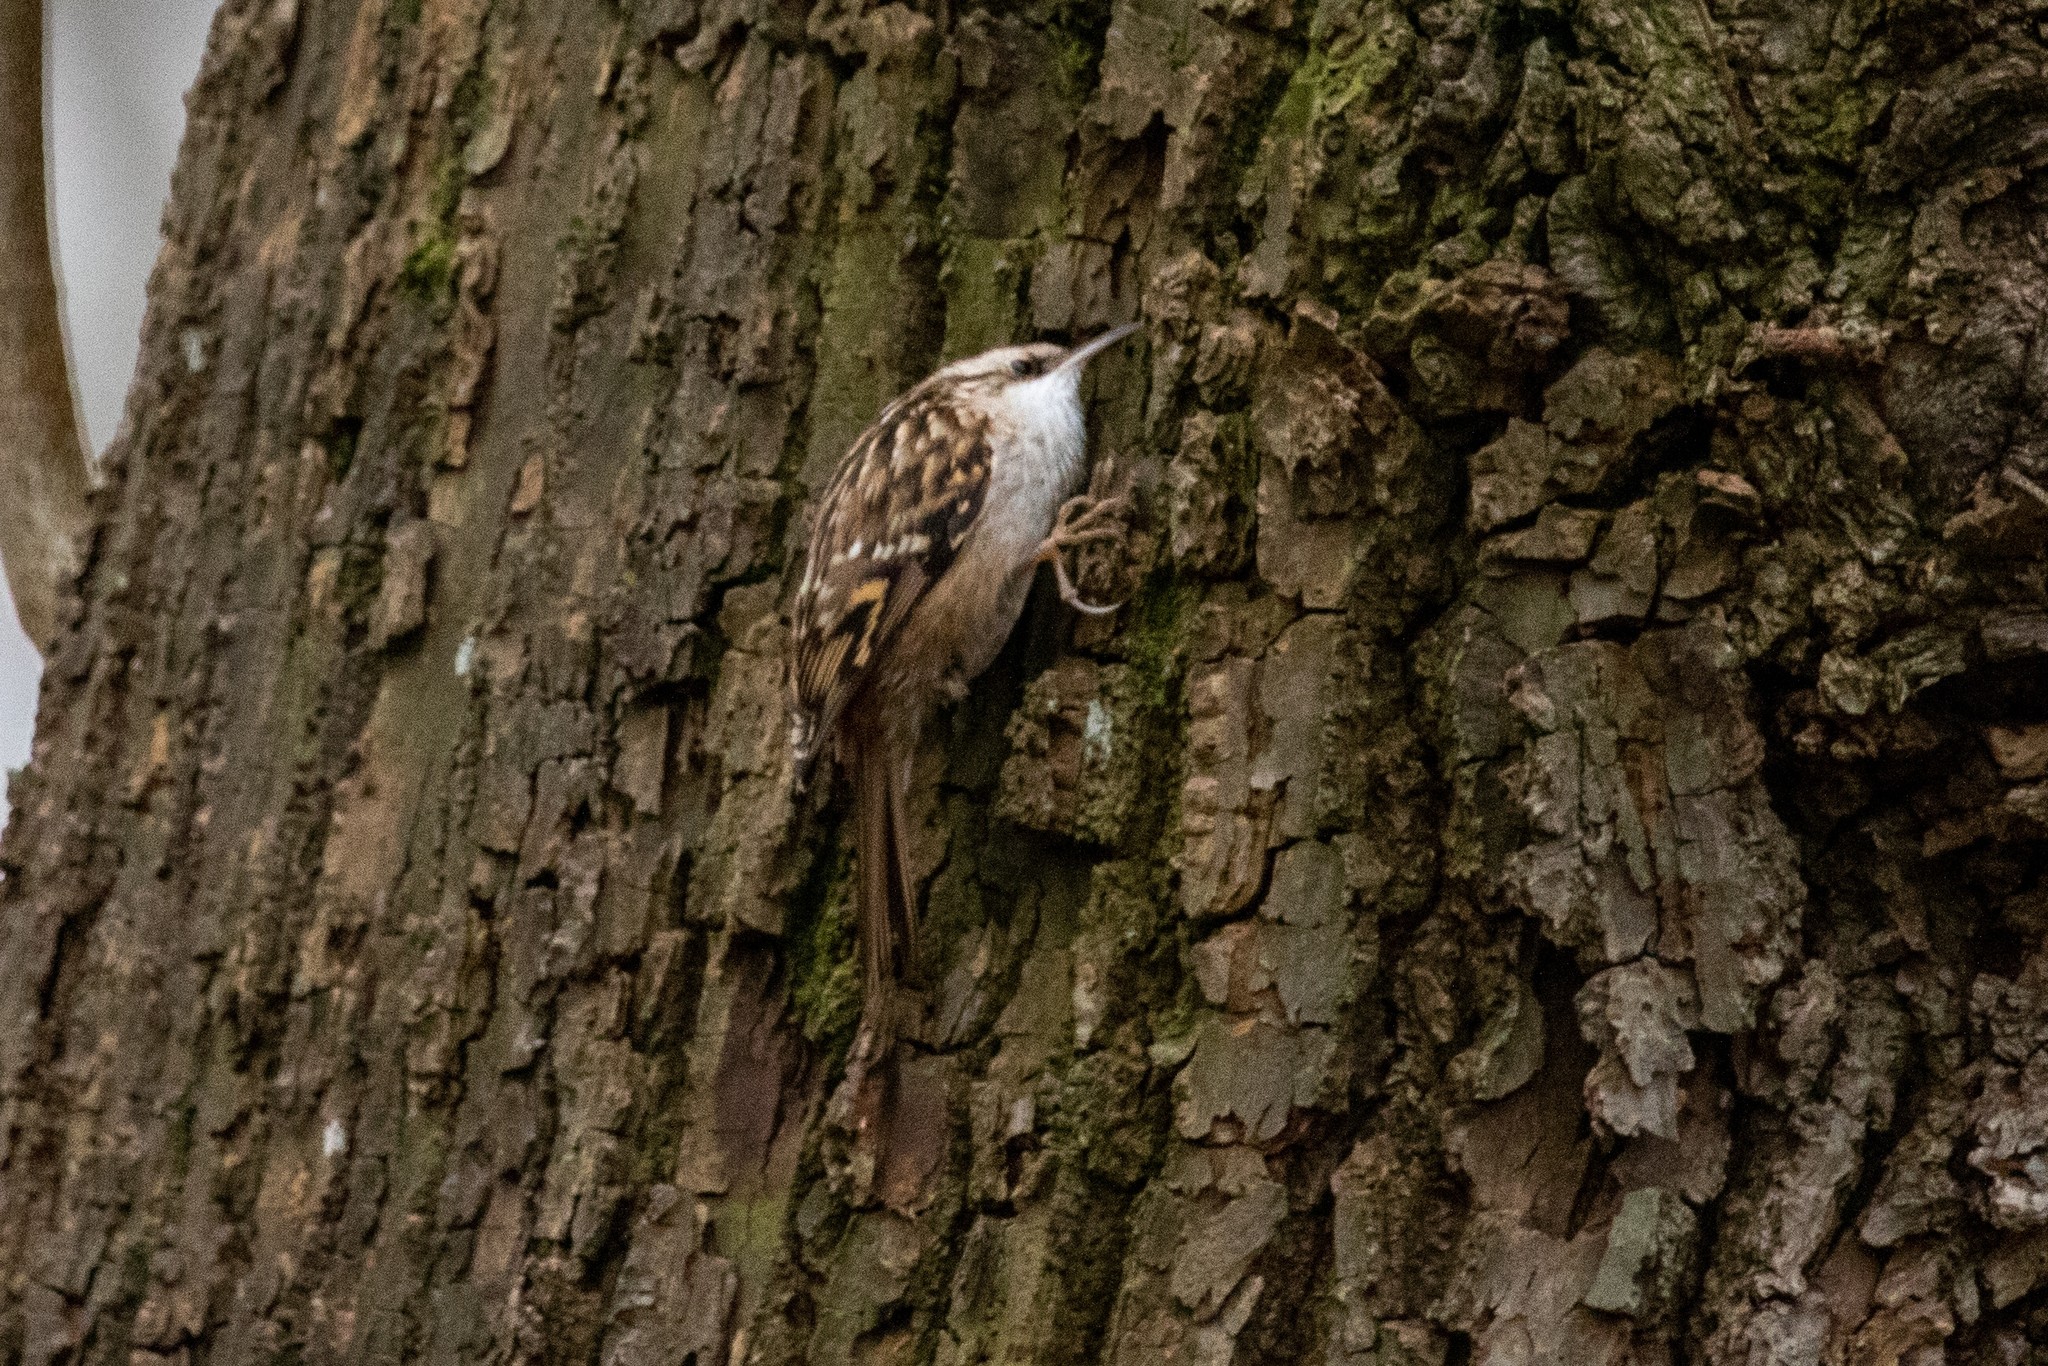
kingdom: Animalia
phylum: Chordata
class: Aves
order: Passeriformes
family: Certhiidae
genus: Certhia
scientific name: Certhia brachydactyla
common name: Short-toed treecreeper
